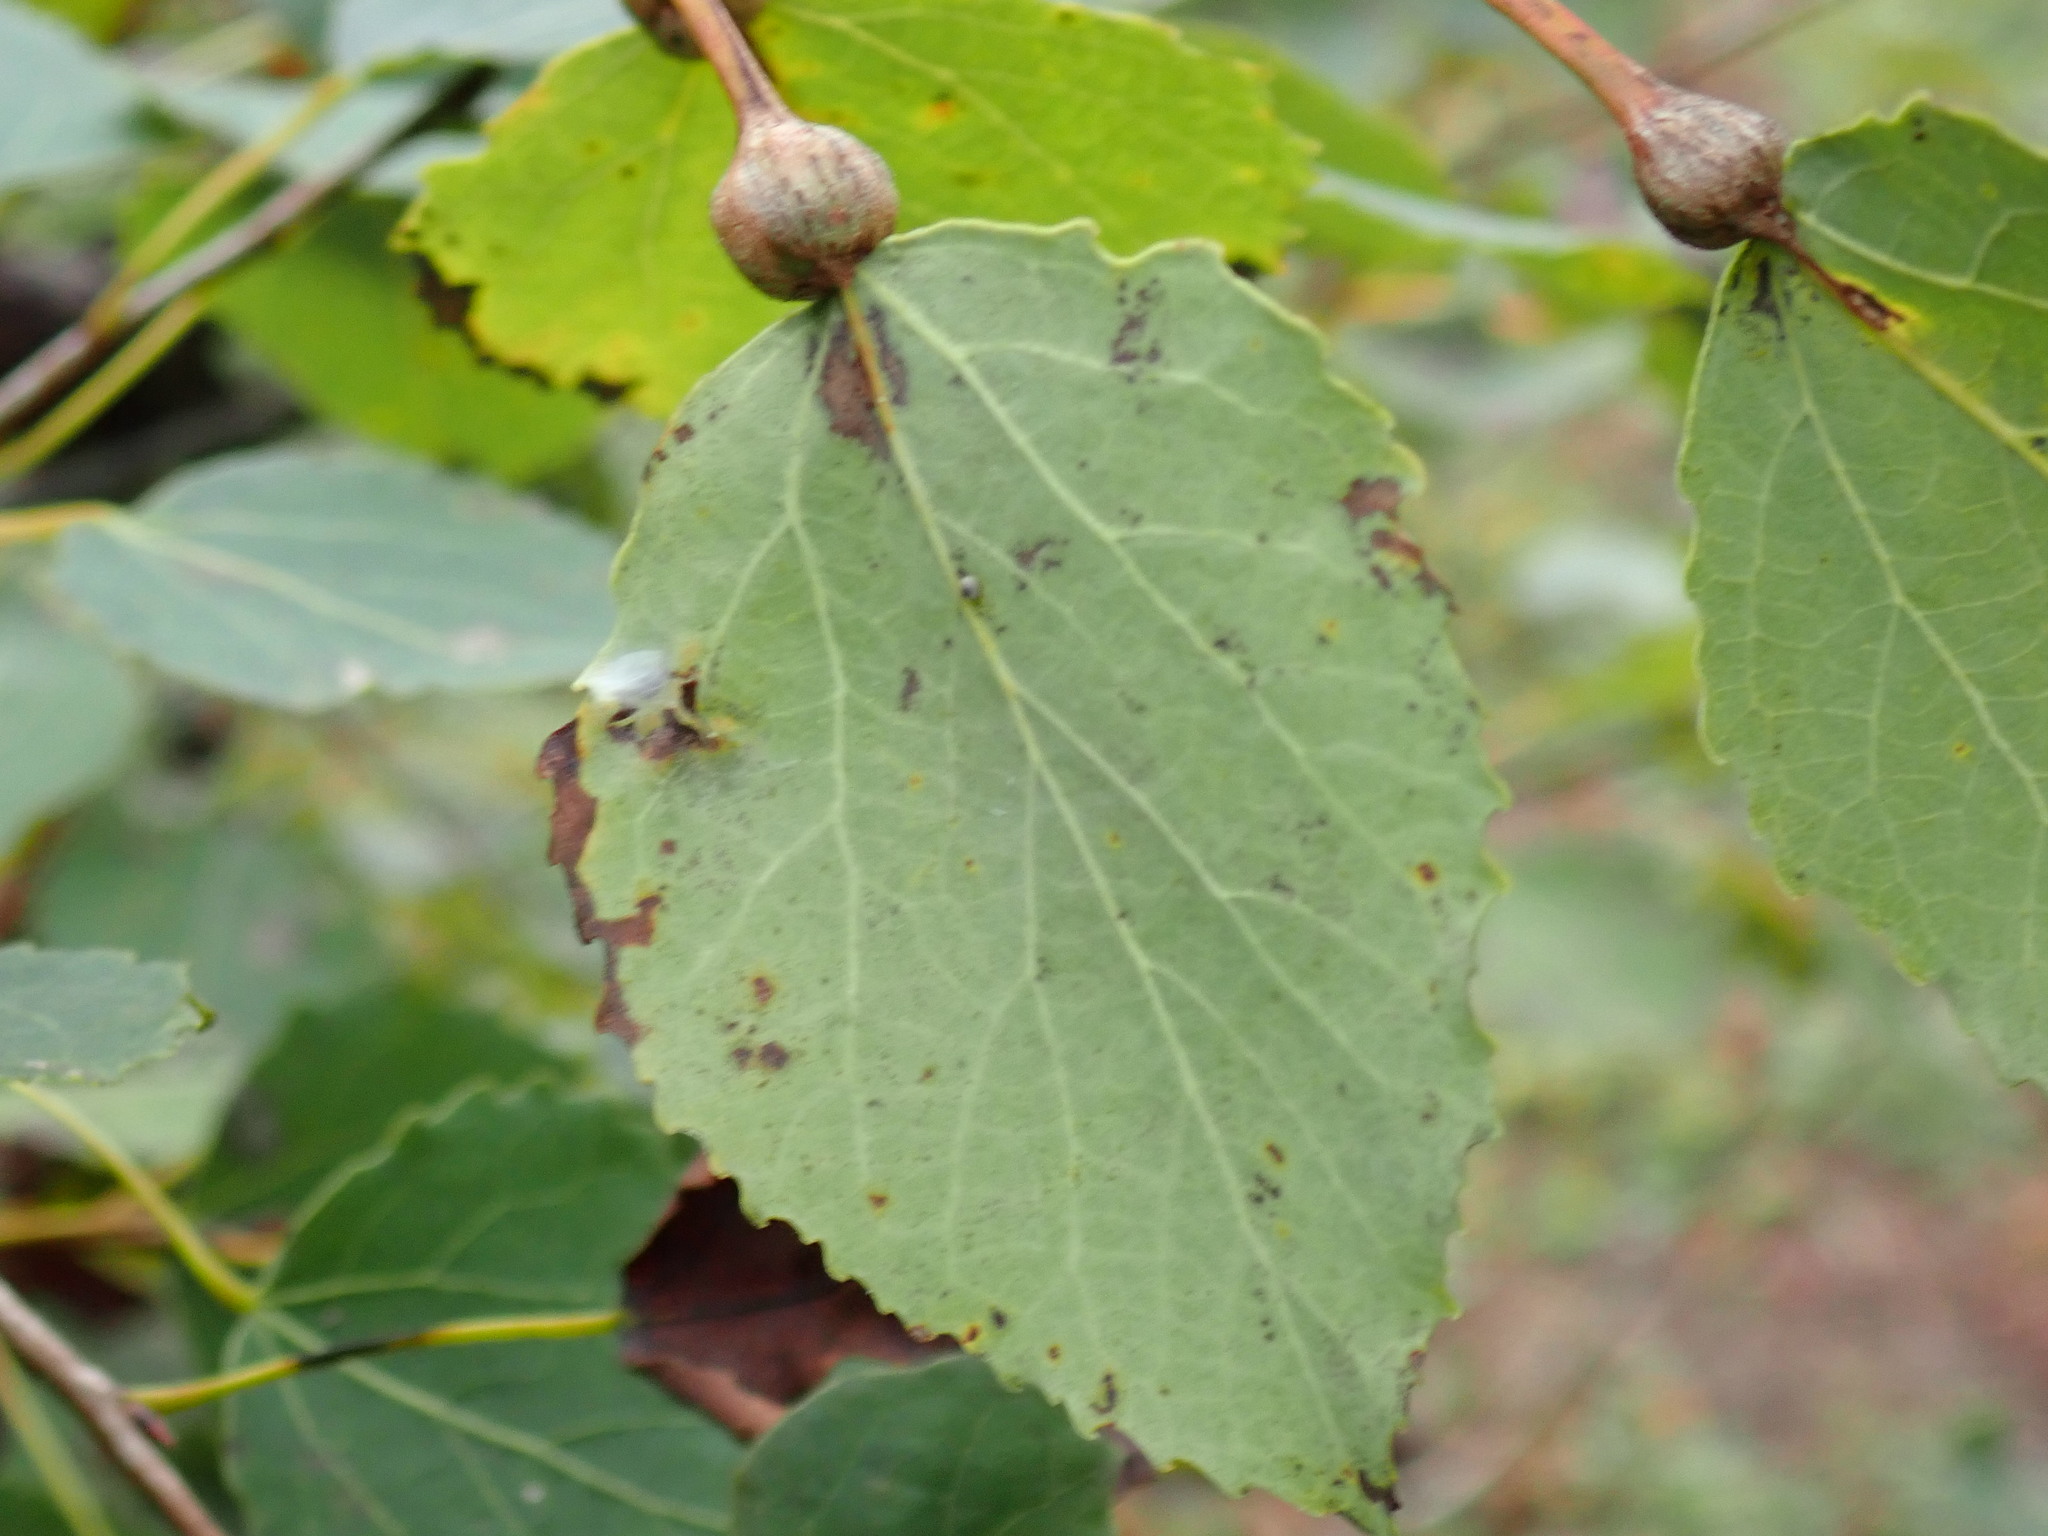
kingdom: Animalia
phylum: Arthropoda
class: Insecta
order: Lepidoptera
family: Nepticulidae
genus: Ectoedemia
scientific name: Ectoedemia populella
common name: Aspen petiole gall moth
